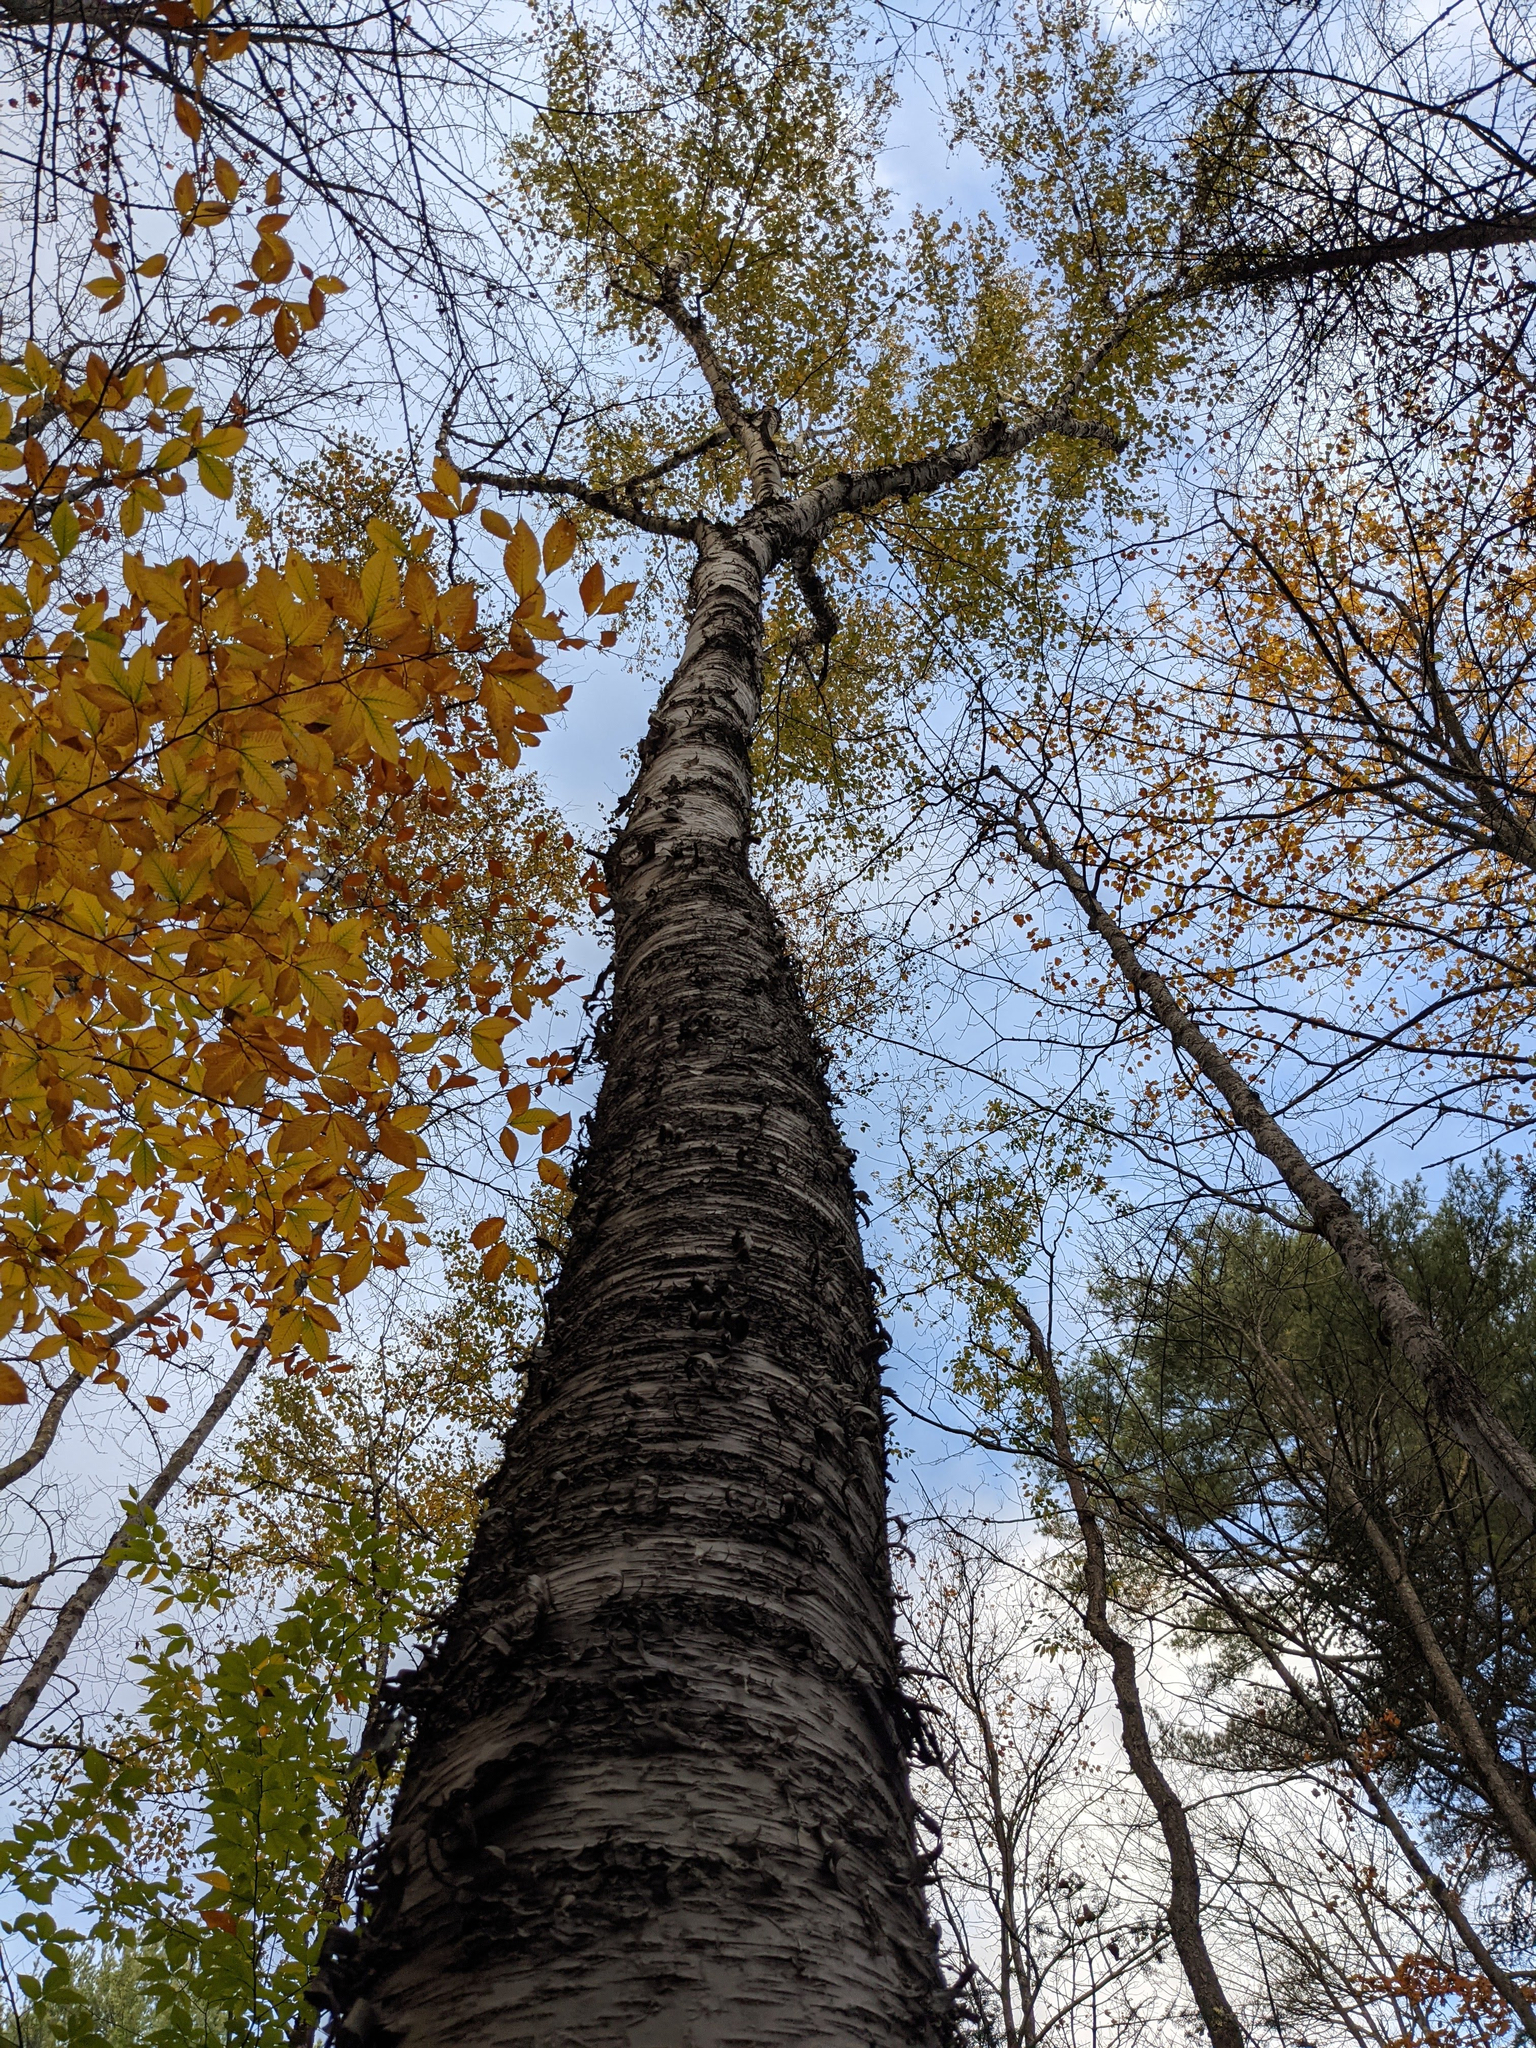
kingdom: Plantae
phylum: Tracheophyta
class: Magnoliopsida
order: Fagales
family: Betulaceae
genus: Betula
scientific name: Betula alleghaniensis
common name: Yellow birch
